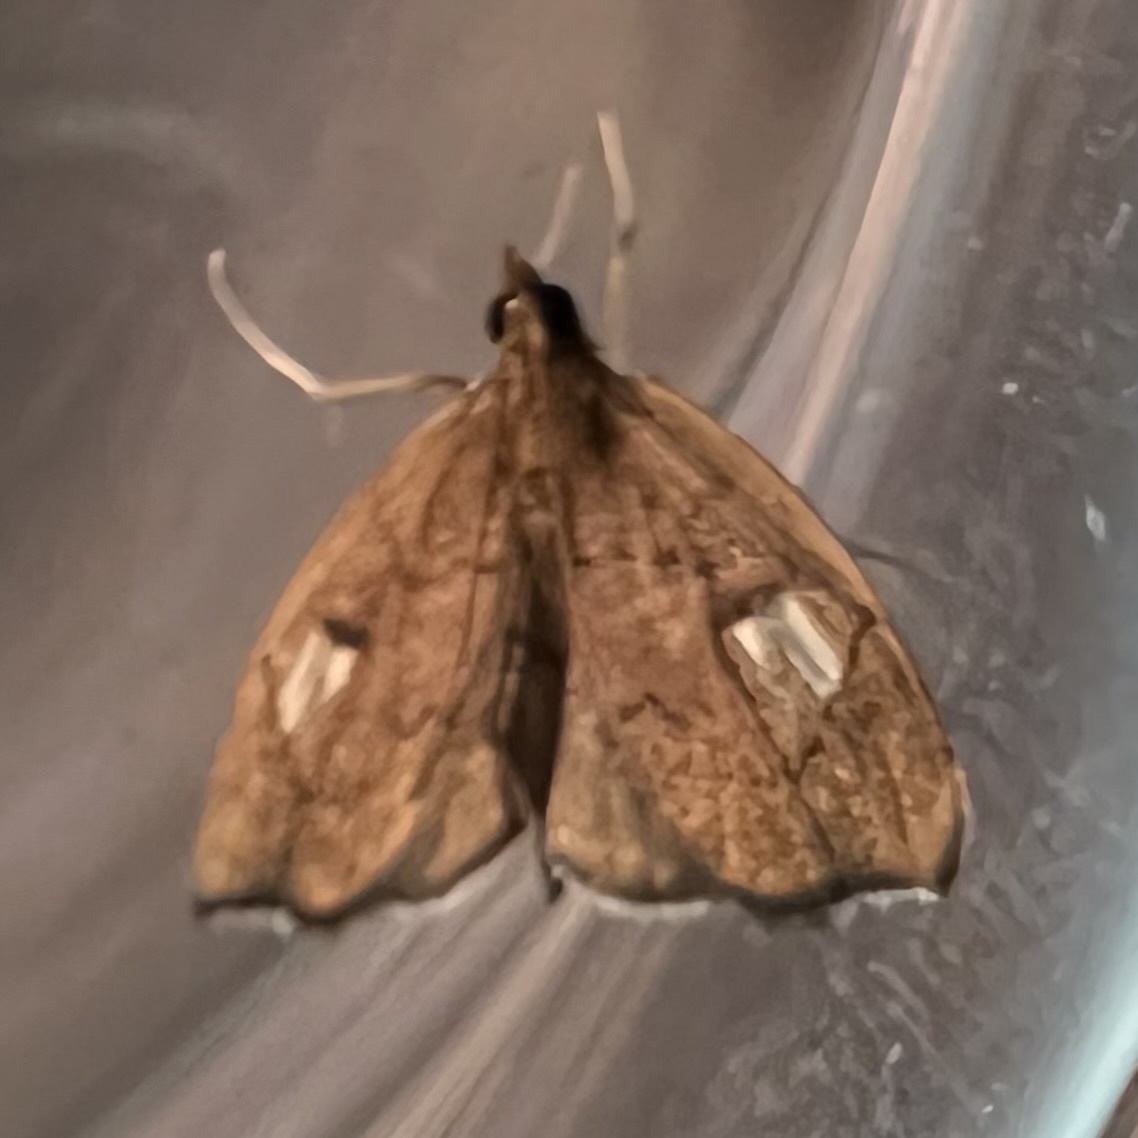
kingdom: Animalia
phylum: Arthropoda
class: Insecta
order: Lepidoptera
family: Crambidae
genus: Perispasta
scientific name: Perispasta caeculalis
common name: Titian peale's moth
